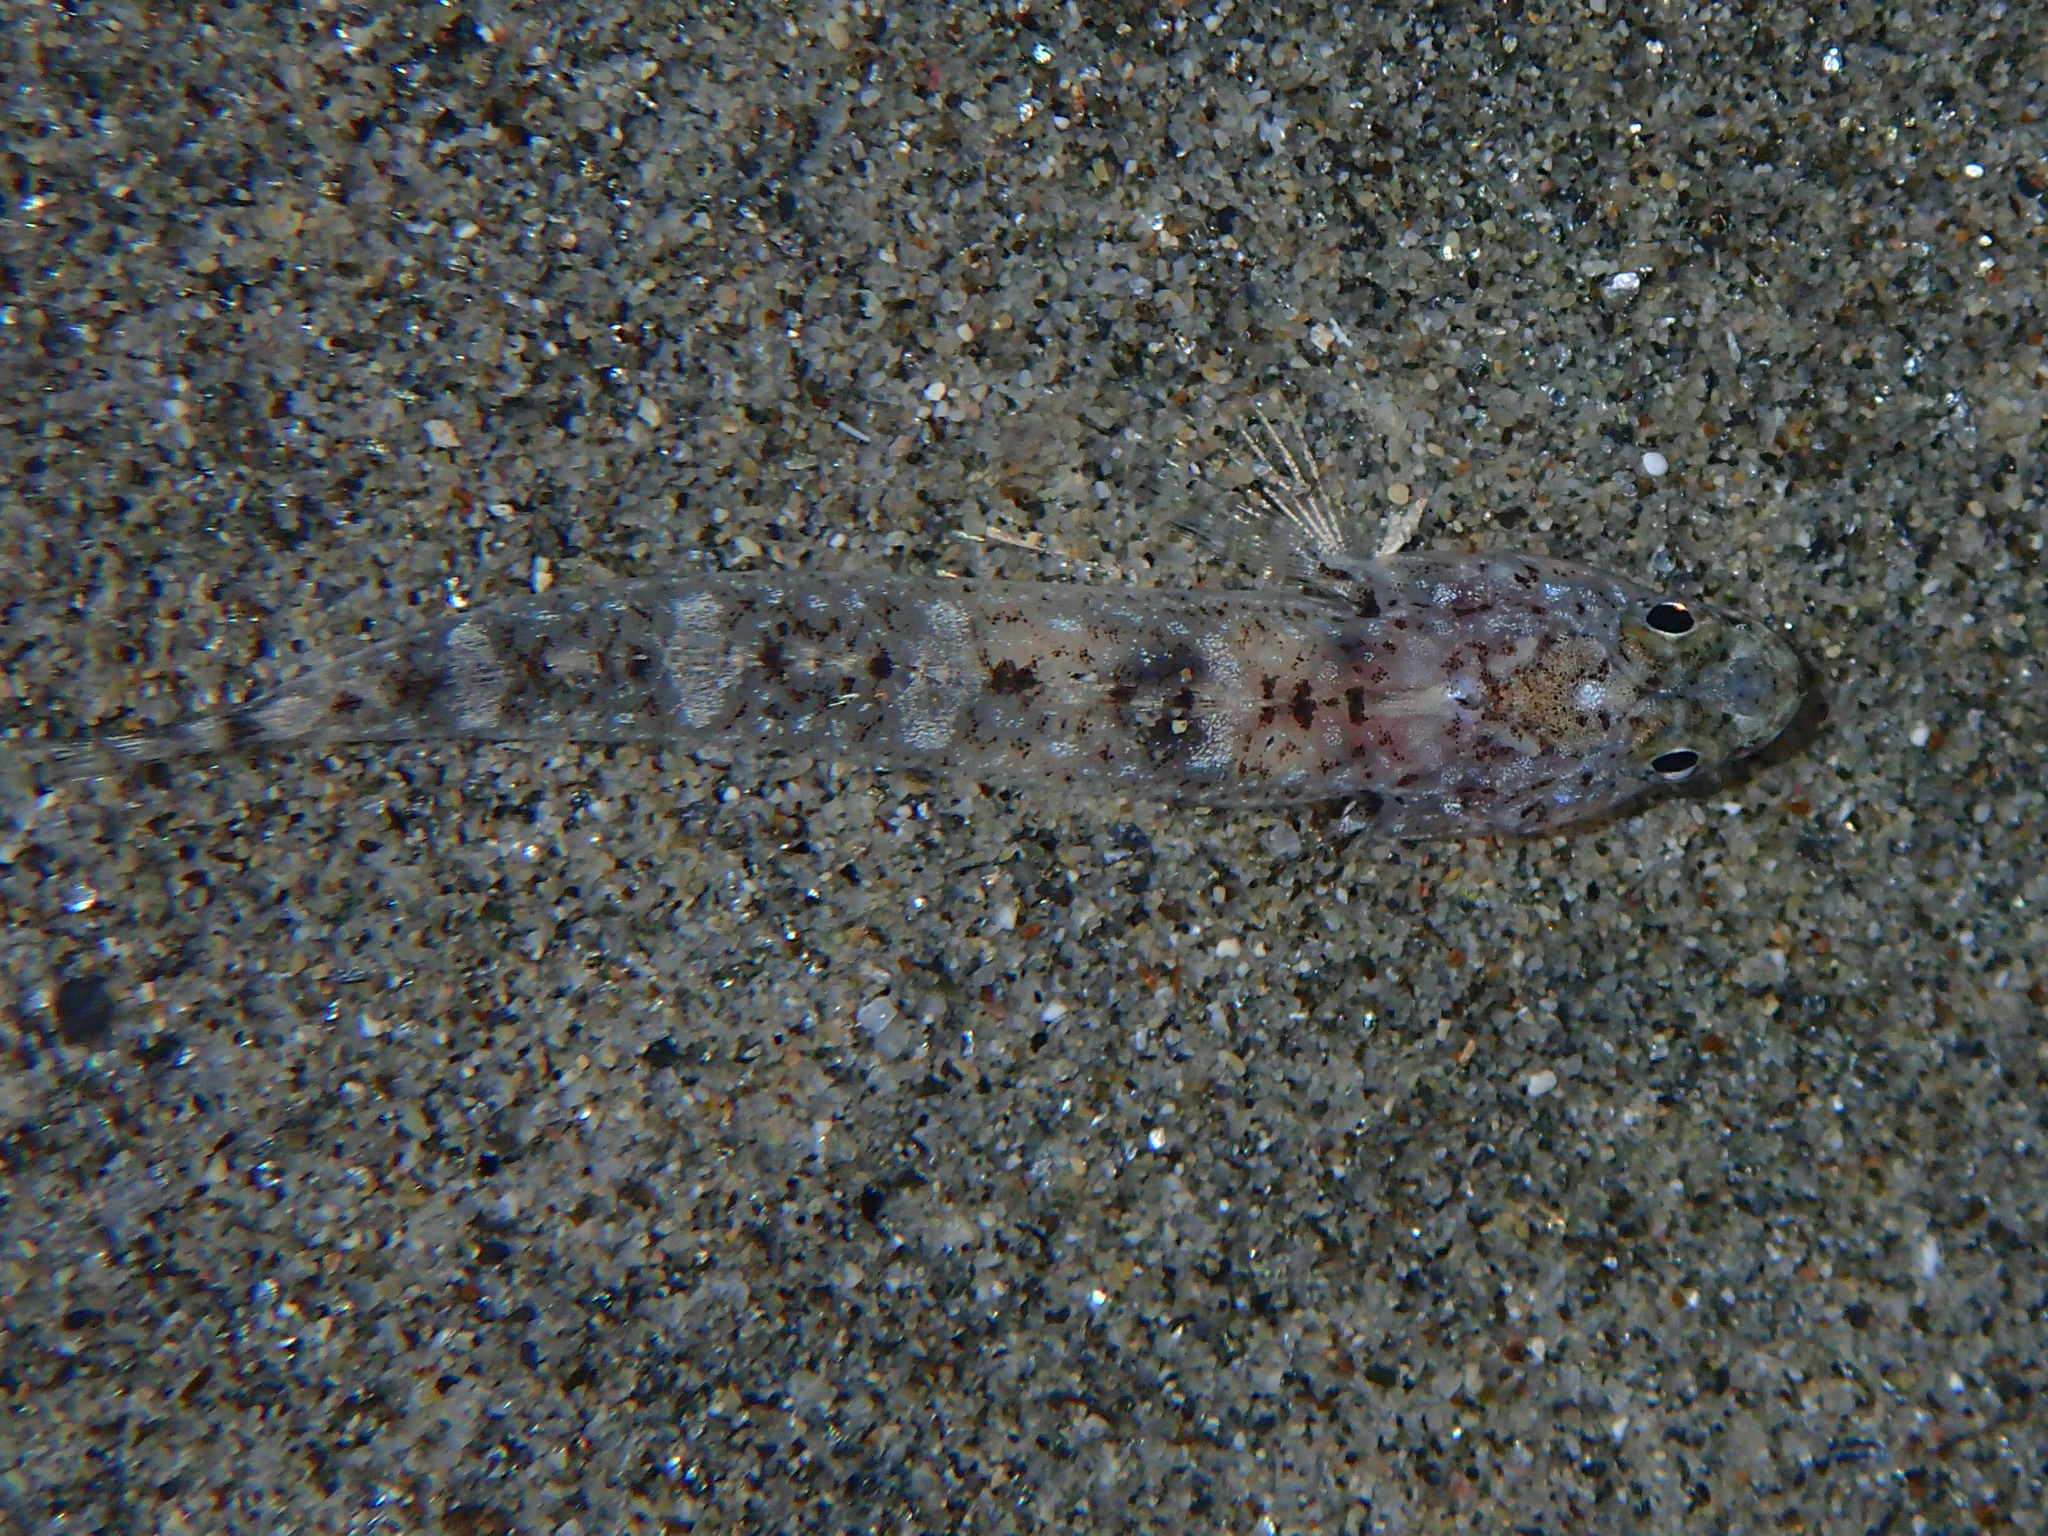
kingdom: Animalia
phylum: Chordata
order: Perciformes
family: Gobiidae
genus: Pomatoschistus
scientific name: Pomatoschistus marmoratus
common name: Marbled goby
